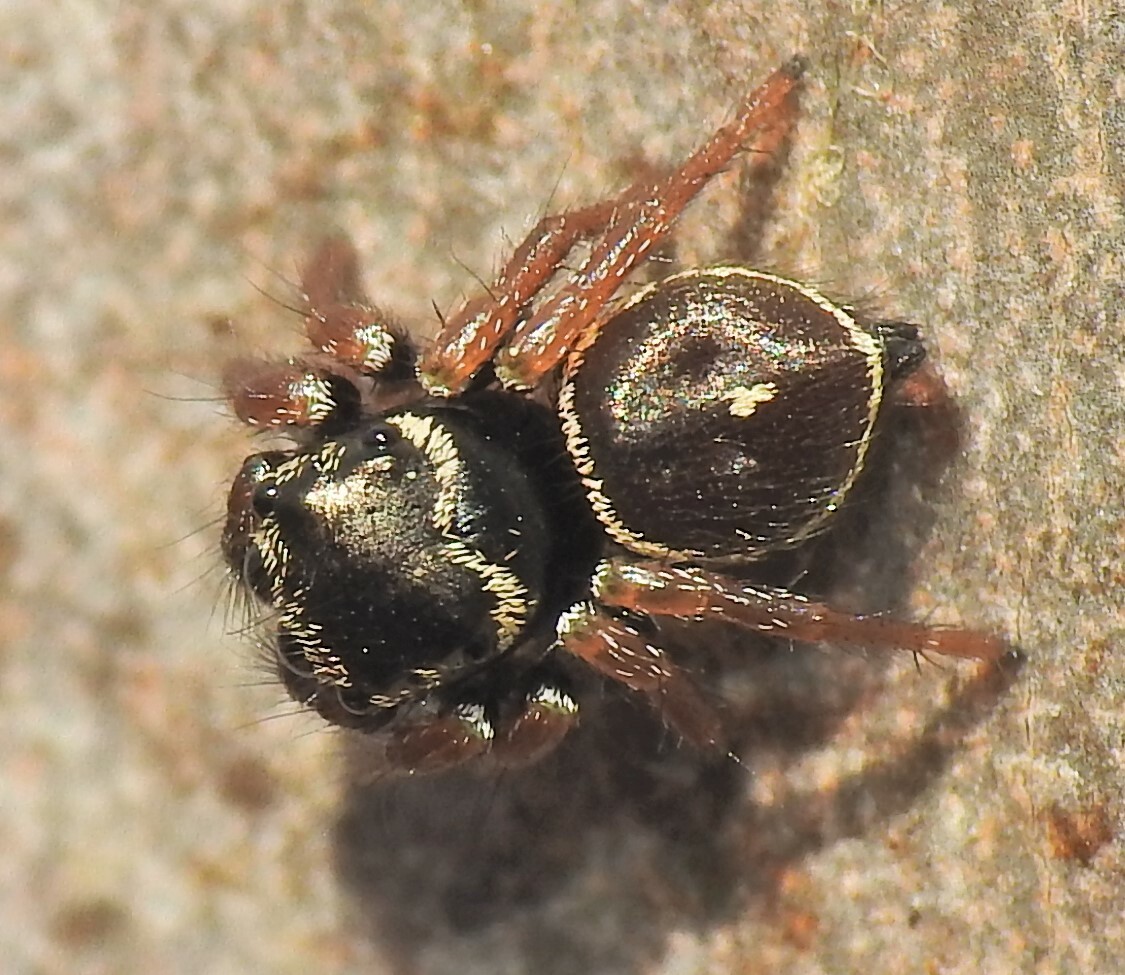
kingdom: Animalia
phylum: Arthropoda
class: Arachnida
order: Araneae
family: Salticidae
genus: Zenodorus
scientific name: Zenodorus orbiculatus
